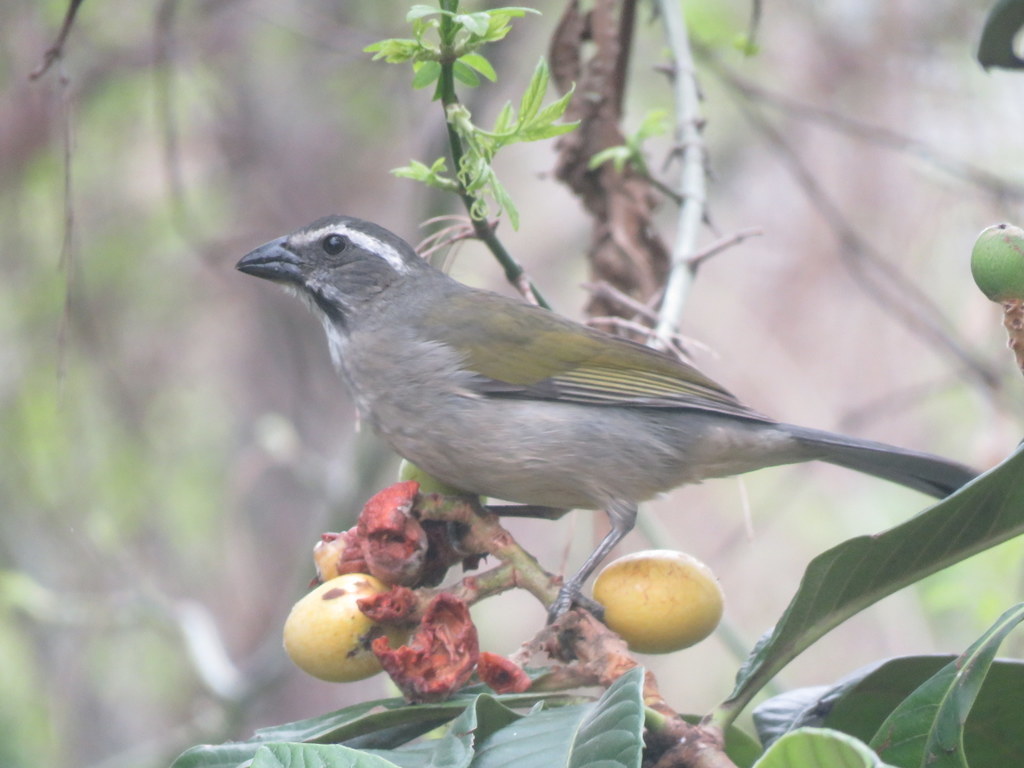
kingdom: Animalia
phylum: Chordata
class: Aves
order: Passeriformes
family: Thraupidae
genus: Saltator
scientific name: Saltator similis
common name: Green-winged saltator
